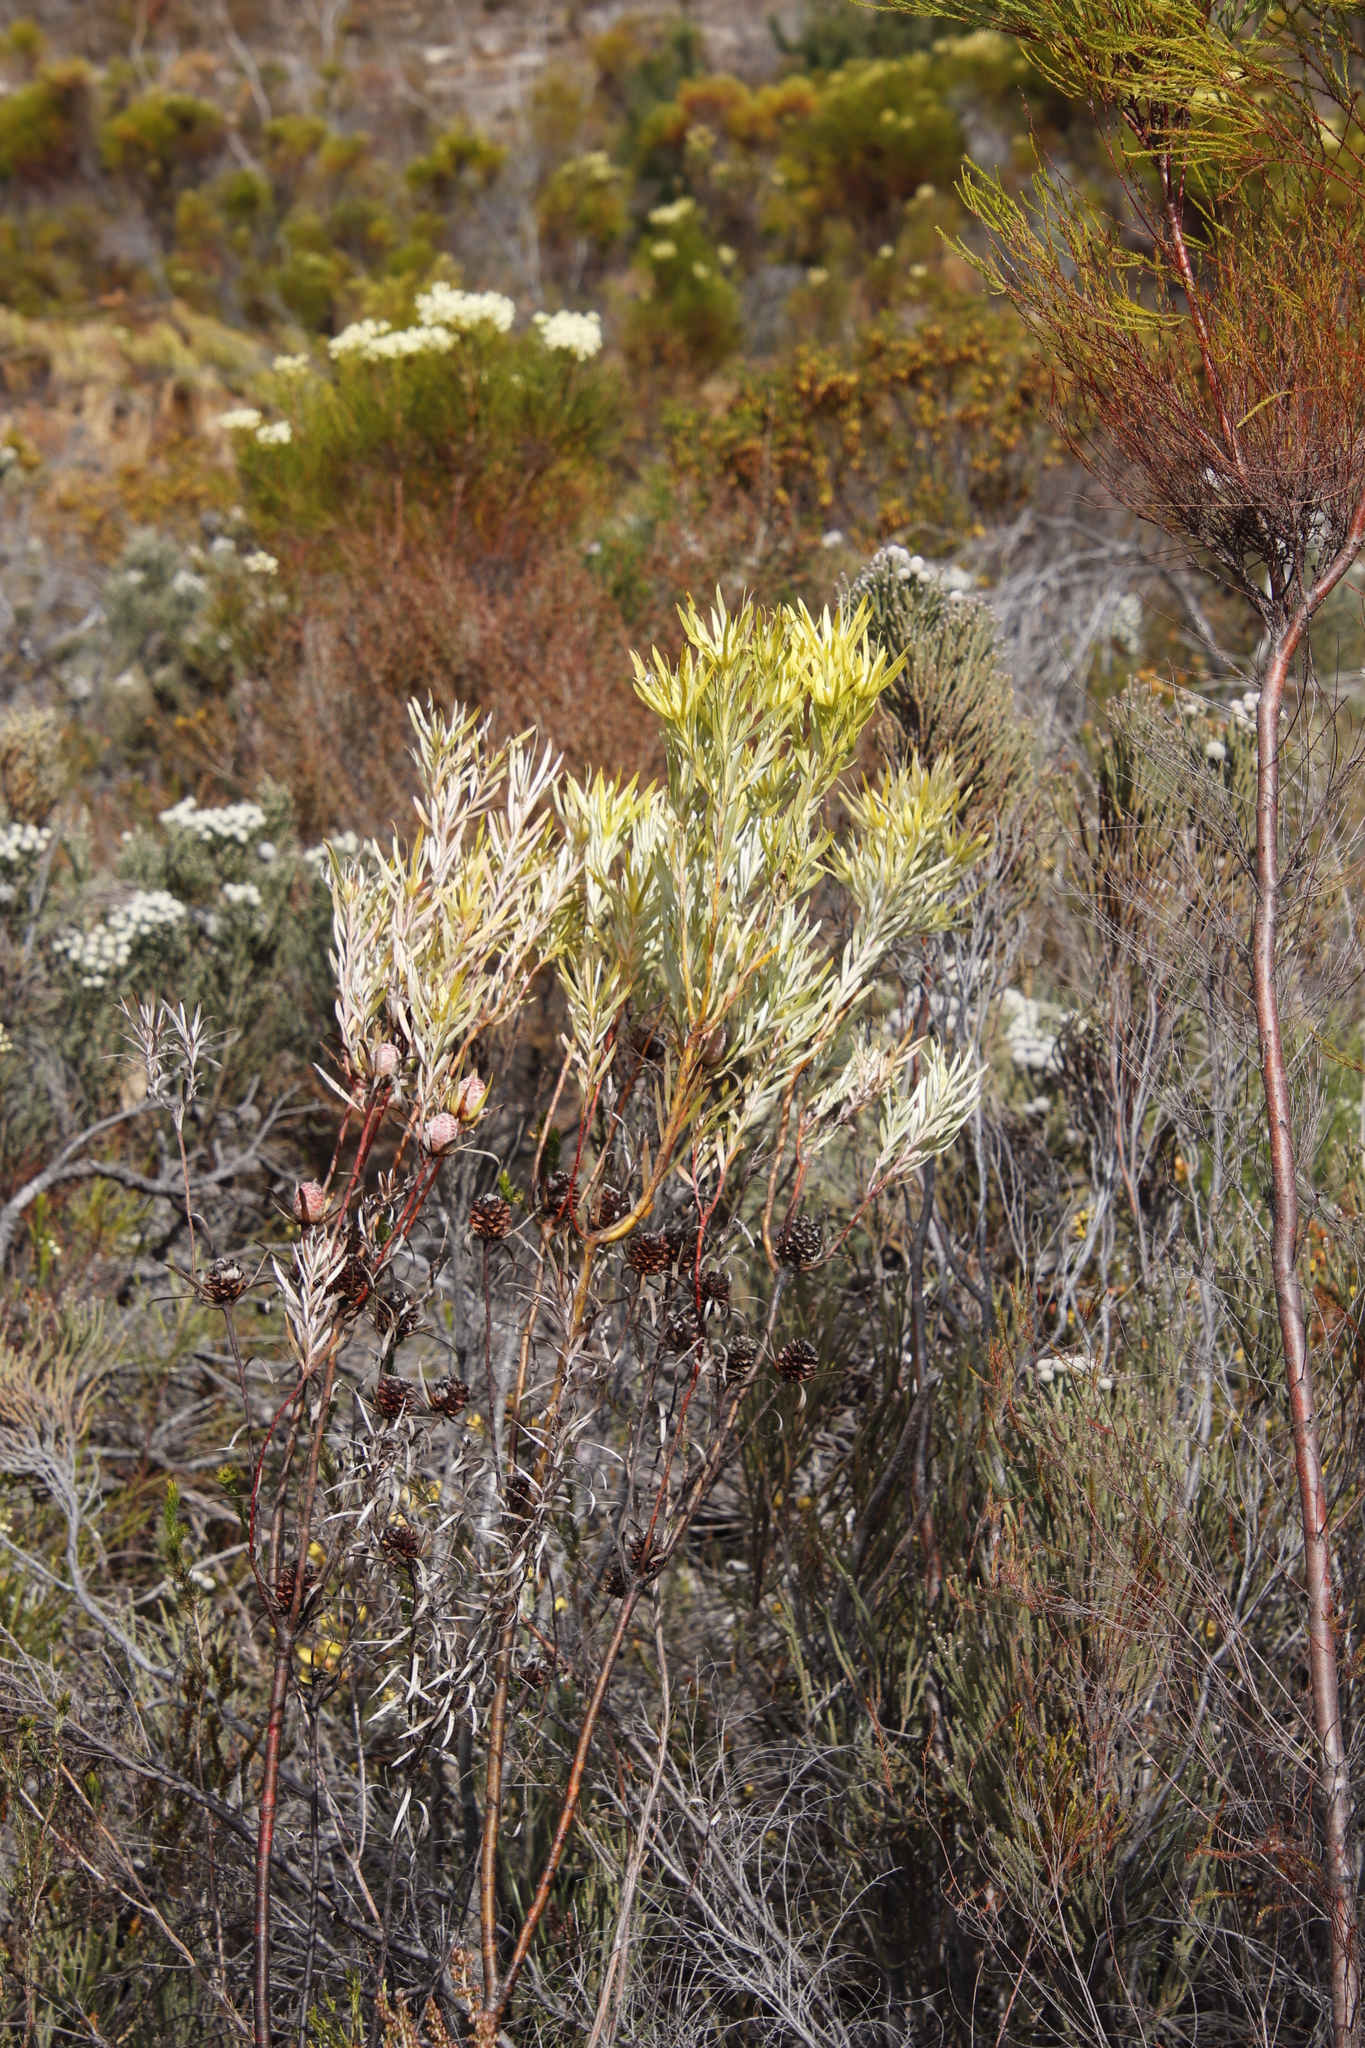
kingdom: Plantae
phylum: Tracheophyta
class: Magnoliopsida
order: Proteales
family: Proteaceae
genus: Leucadendron
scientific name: Leucadendron xanthoconus
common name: Sickle-leaf conebush
